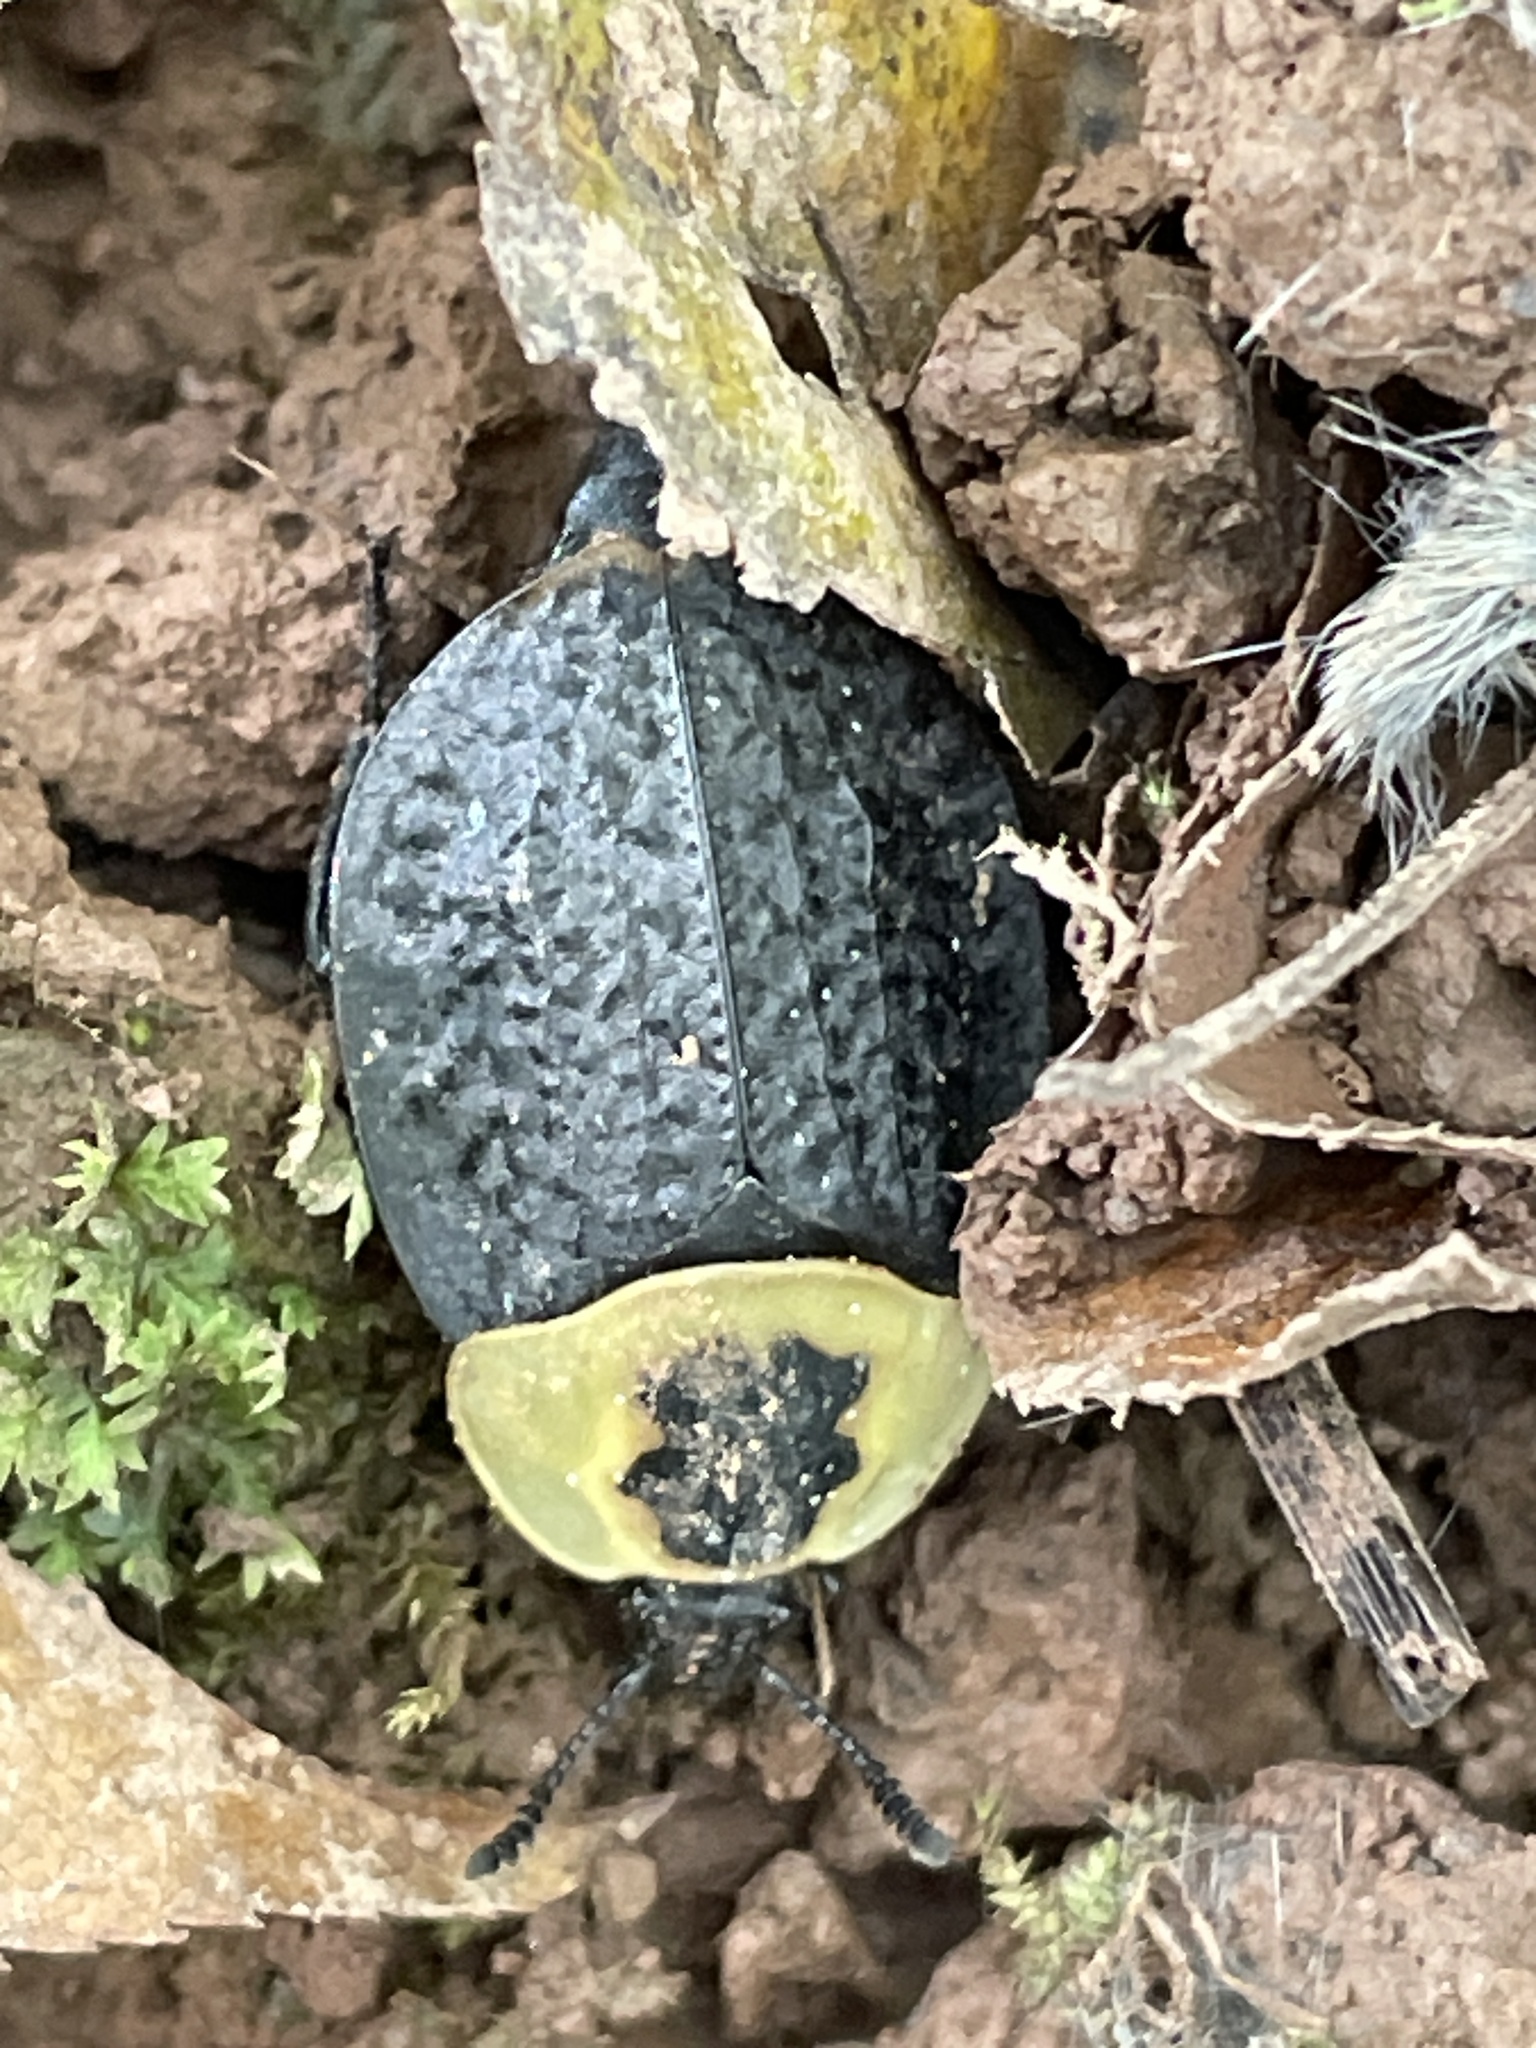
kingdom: Animalia
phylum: Arthropoda
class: Insecta
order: Coleoptera
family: Staphylinidae
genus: Necrophila
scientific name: Necrophila americana
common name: American carrion beetle
